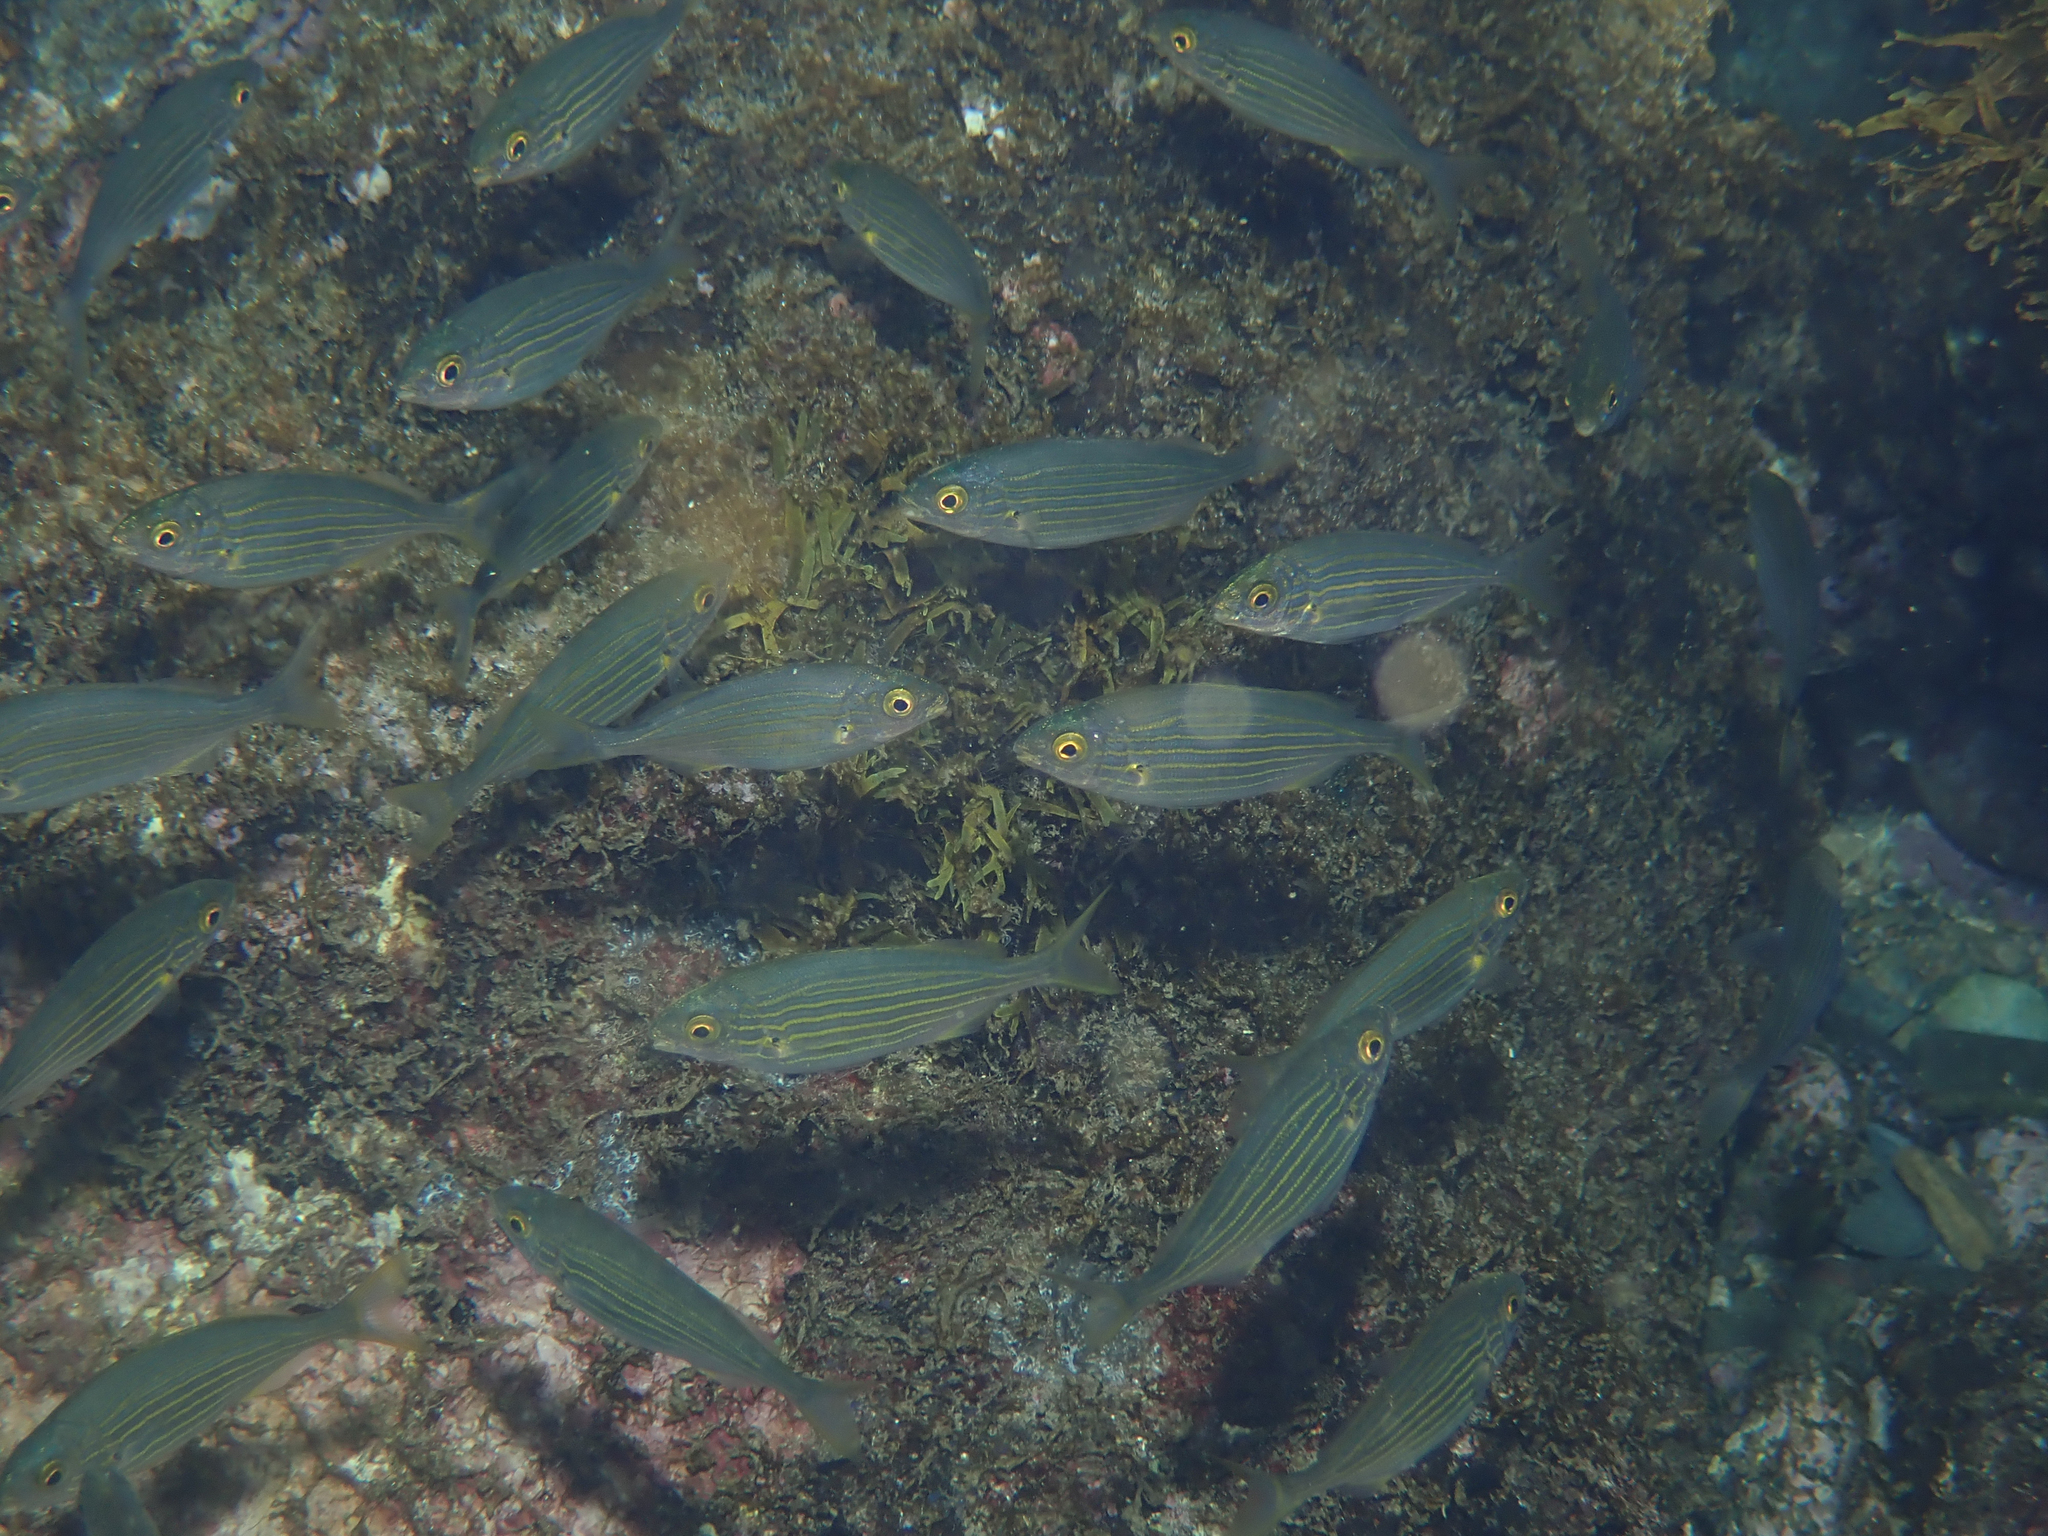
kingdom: Animalia
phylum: Chordata
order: Perciformes
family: Sparidae
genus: Sarpa
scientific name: Sarpa salpa
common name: Salema
